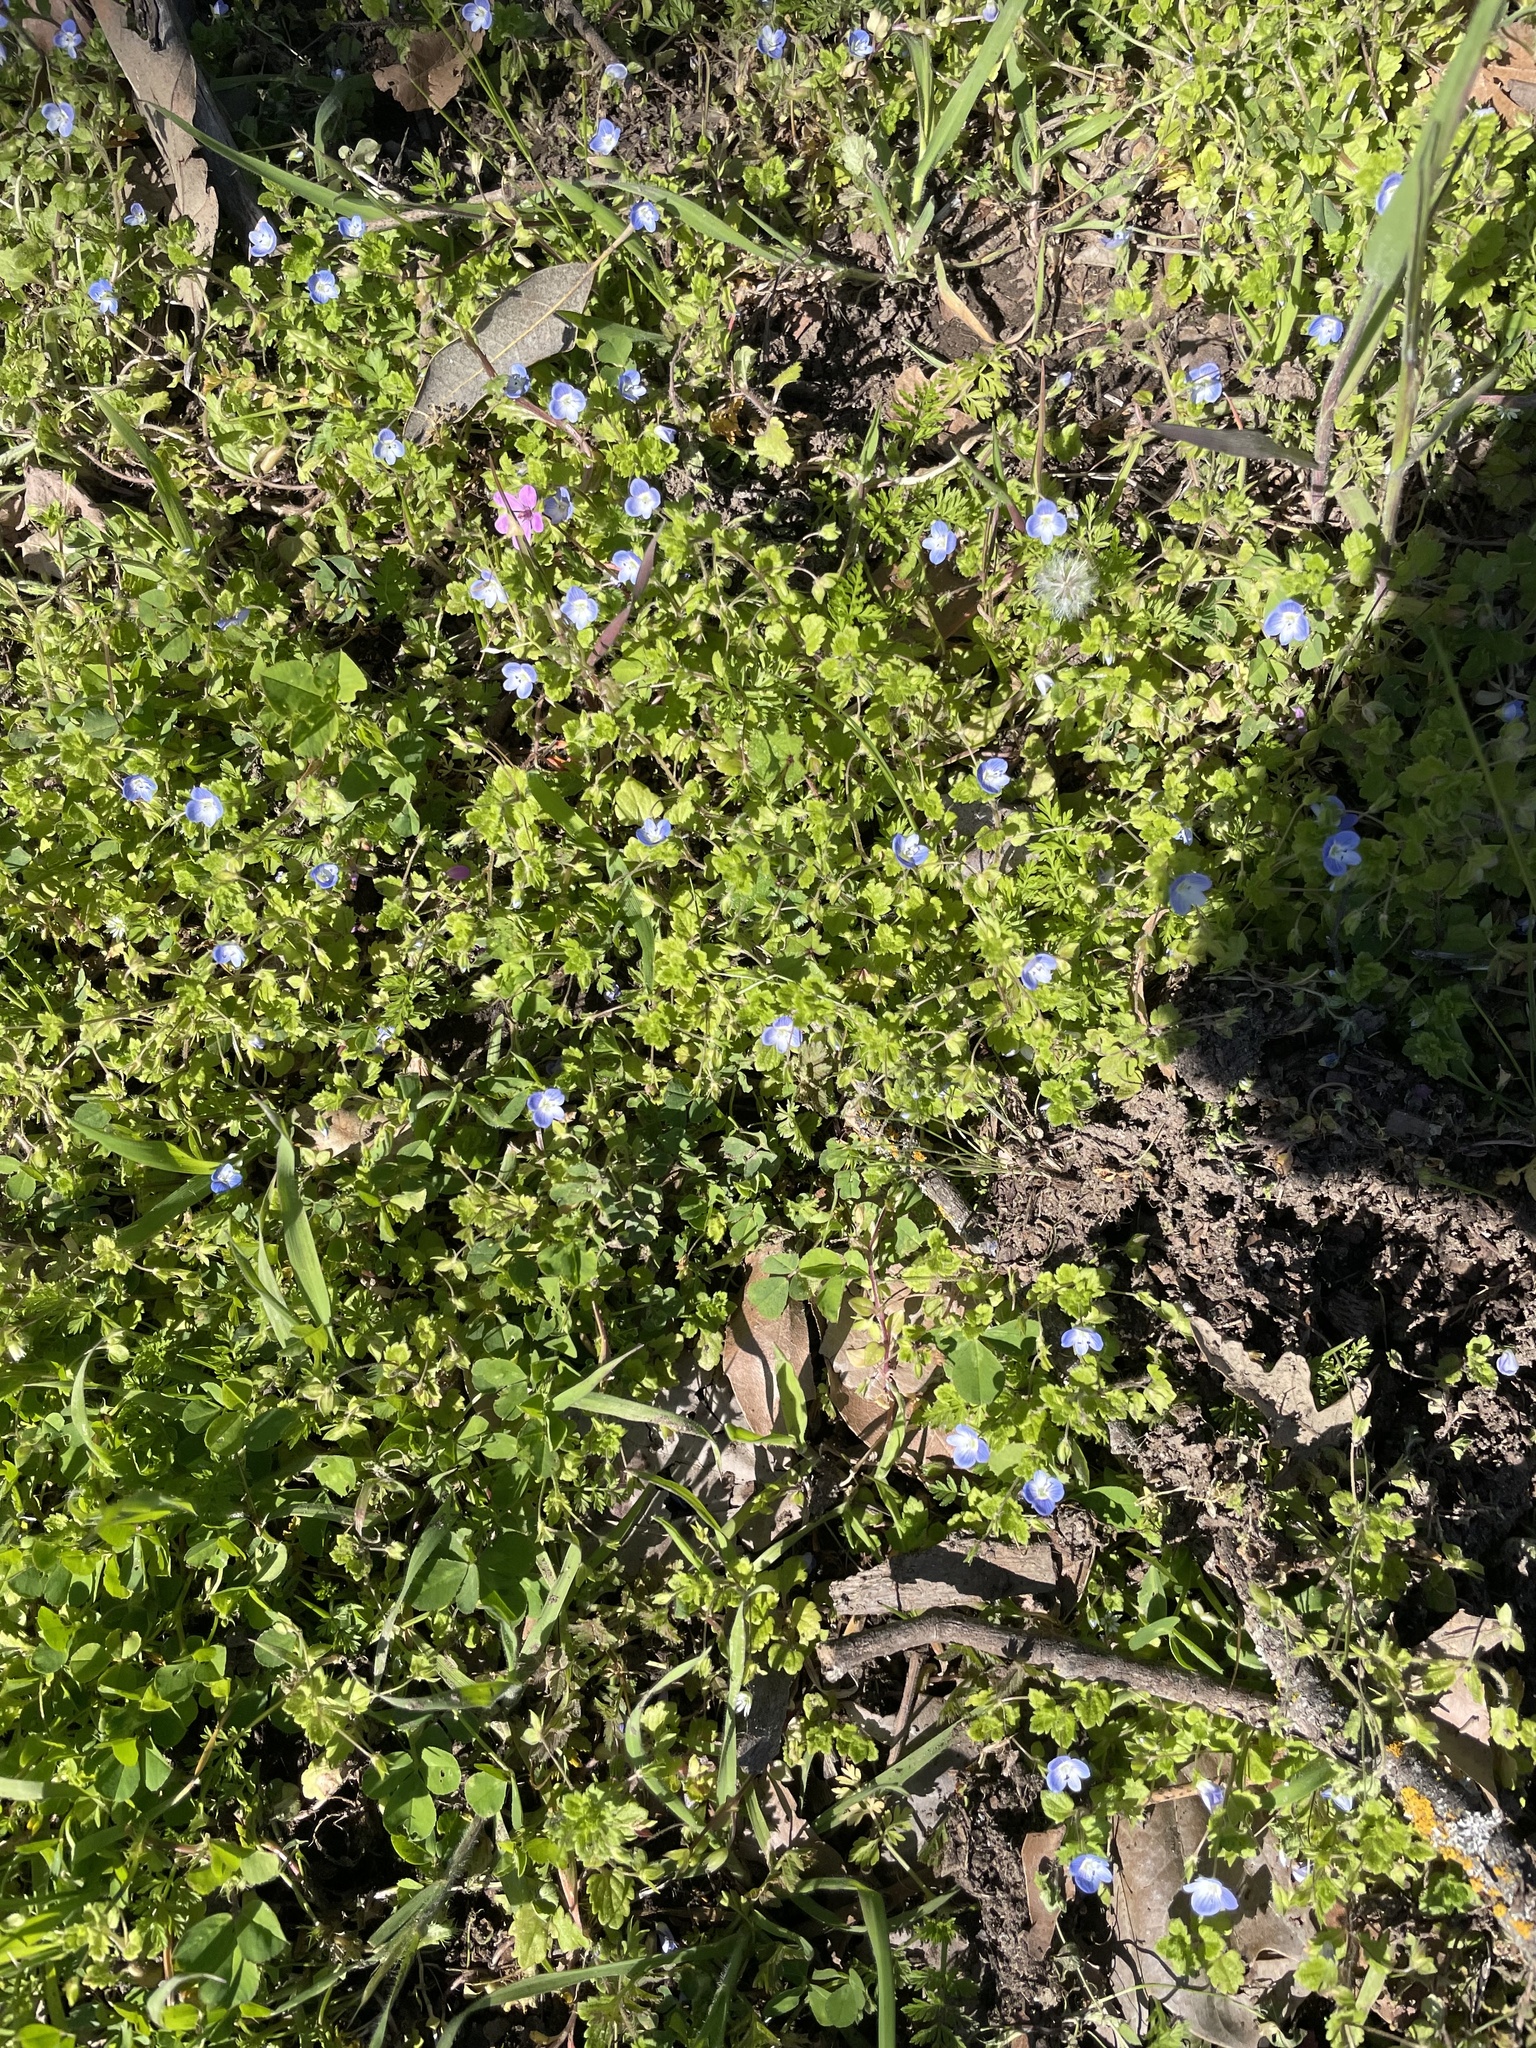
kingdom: Plantae
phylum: Tracheophyta
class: Magnoliopsida
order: Lamiales
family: Plantaginaceae
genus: Veronica
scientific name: Veronica persica
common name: Common field-speedwell
